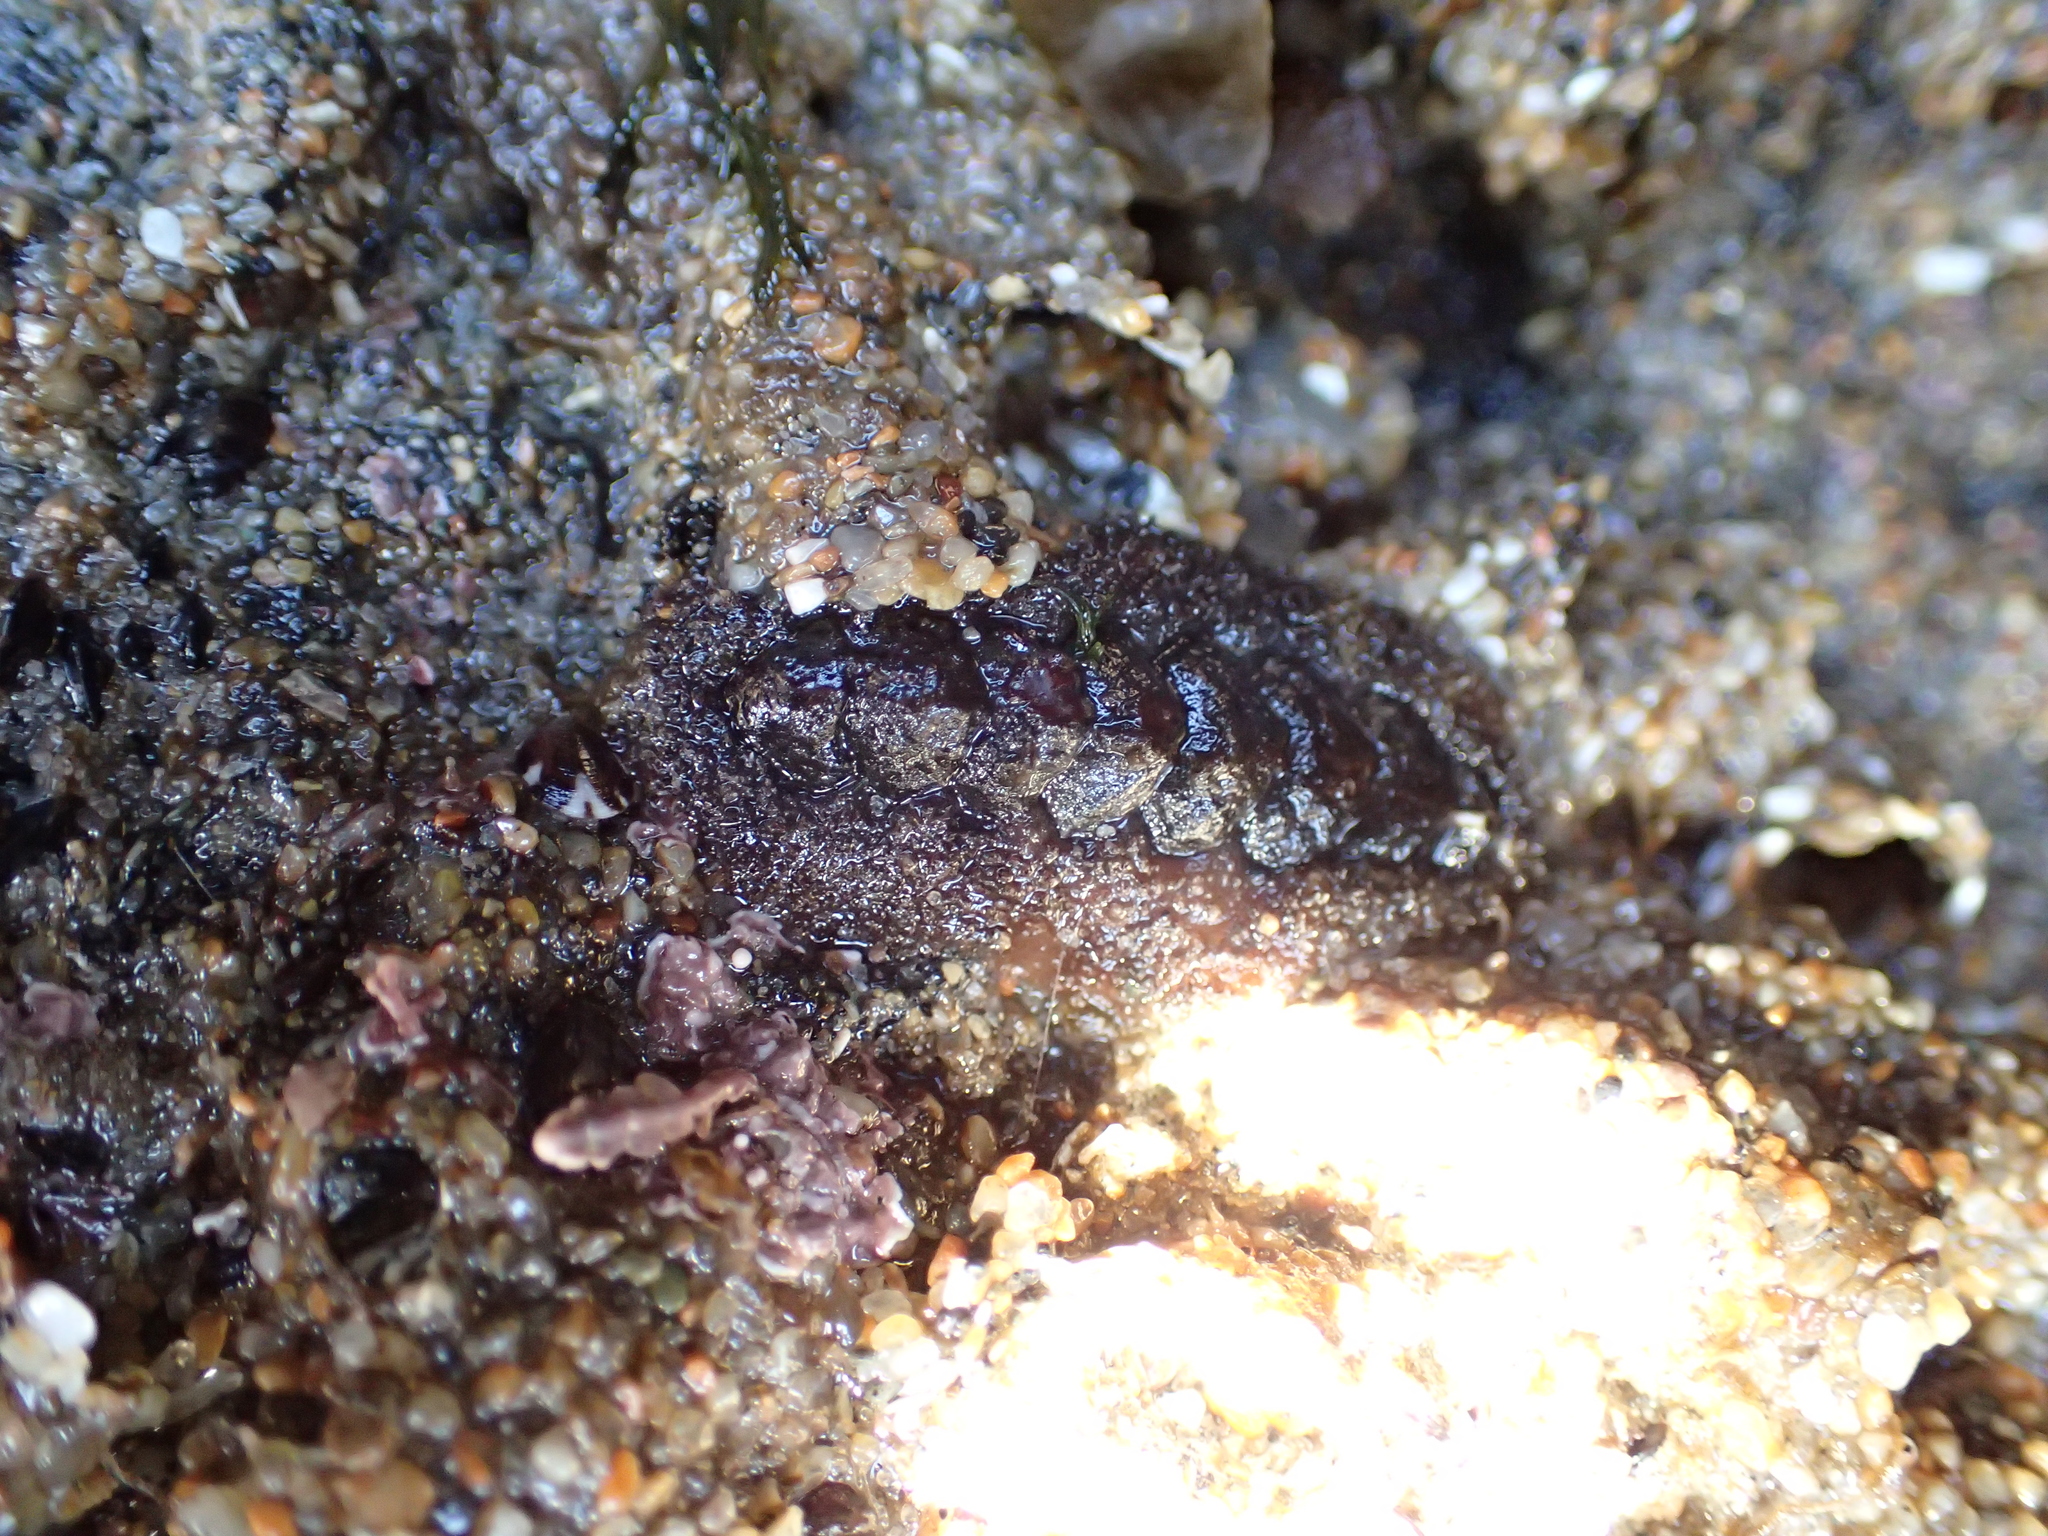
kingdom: Animalia
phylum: Mollusca
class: Polyplacophora
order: Chitonida
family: Tonicellidae
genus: Nuttallina
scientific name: Nuttallina californica
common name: California nuttall chiton
